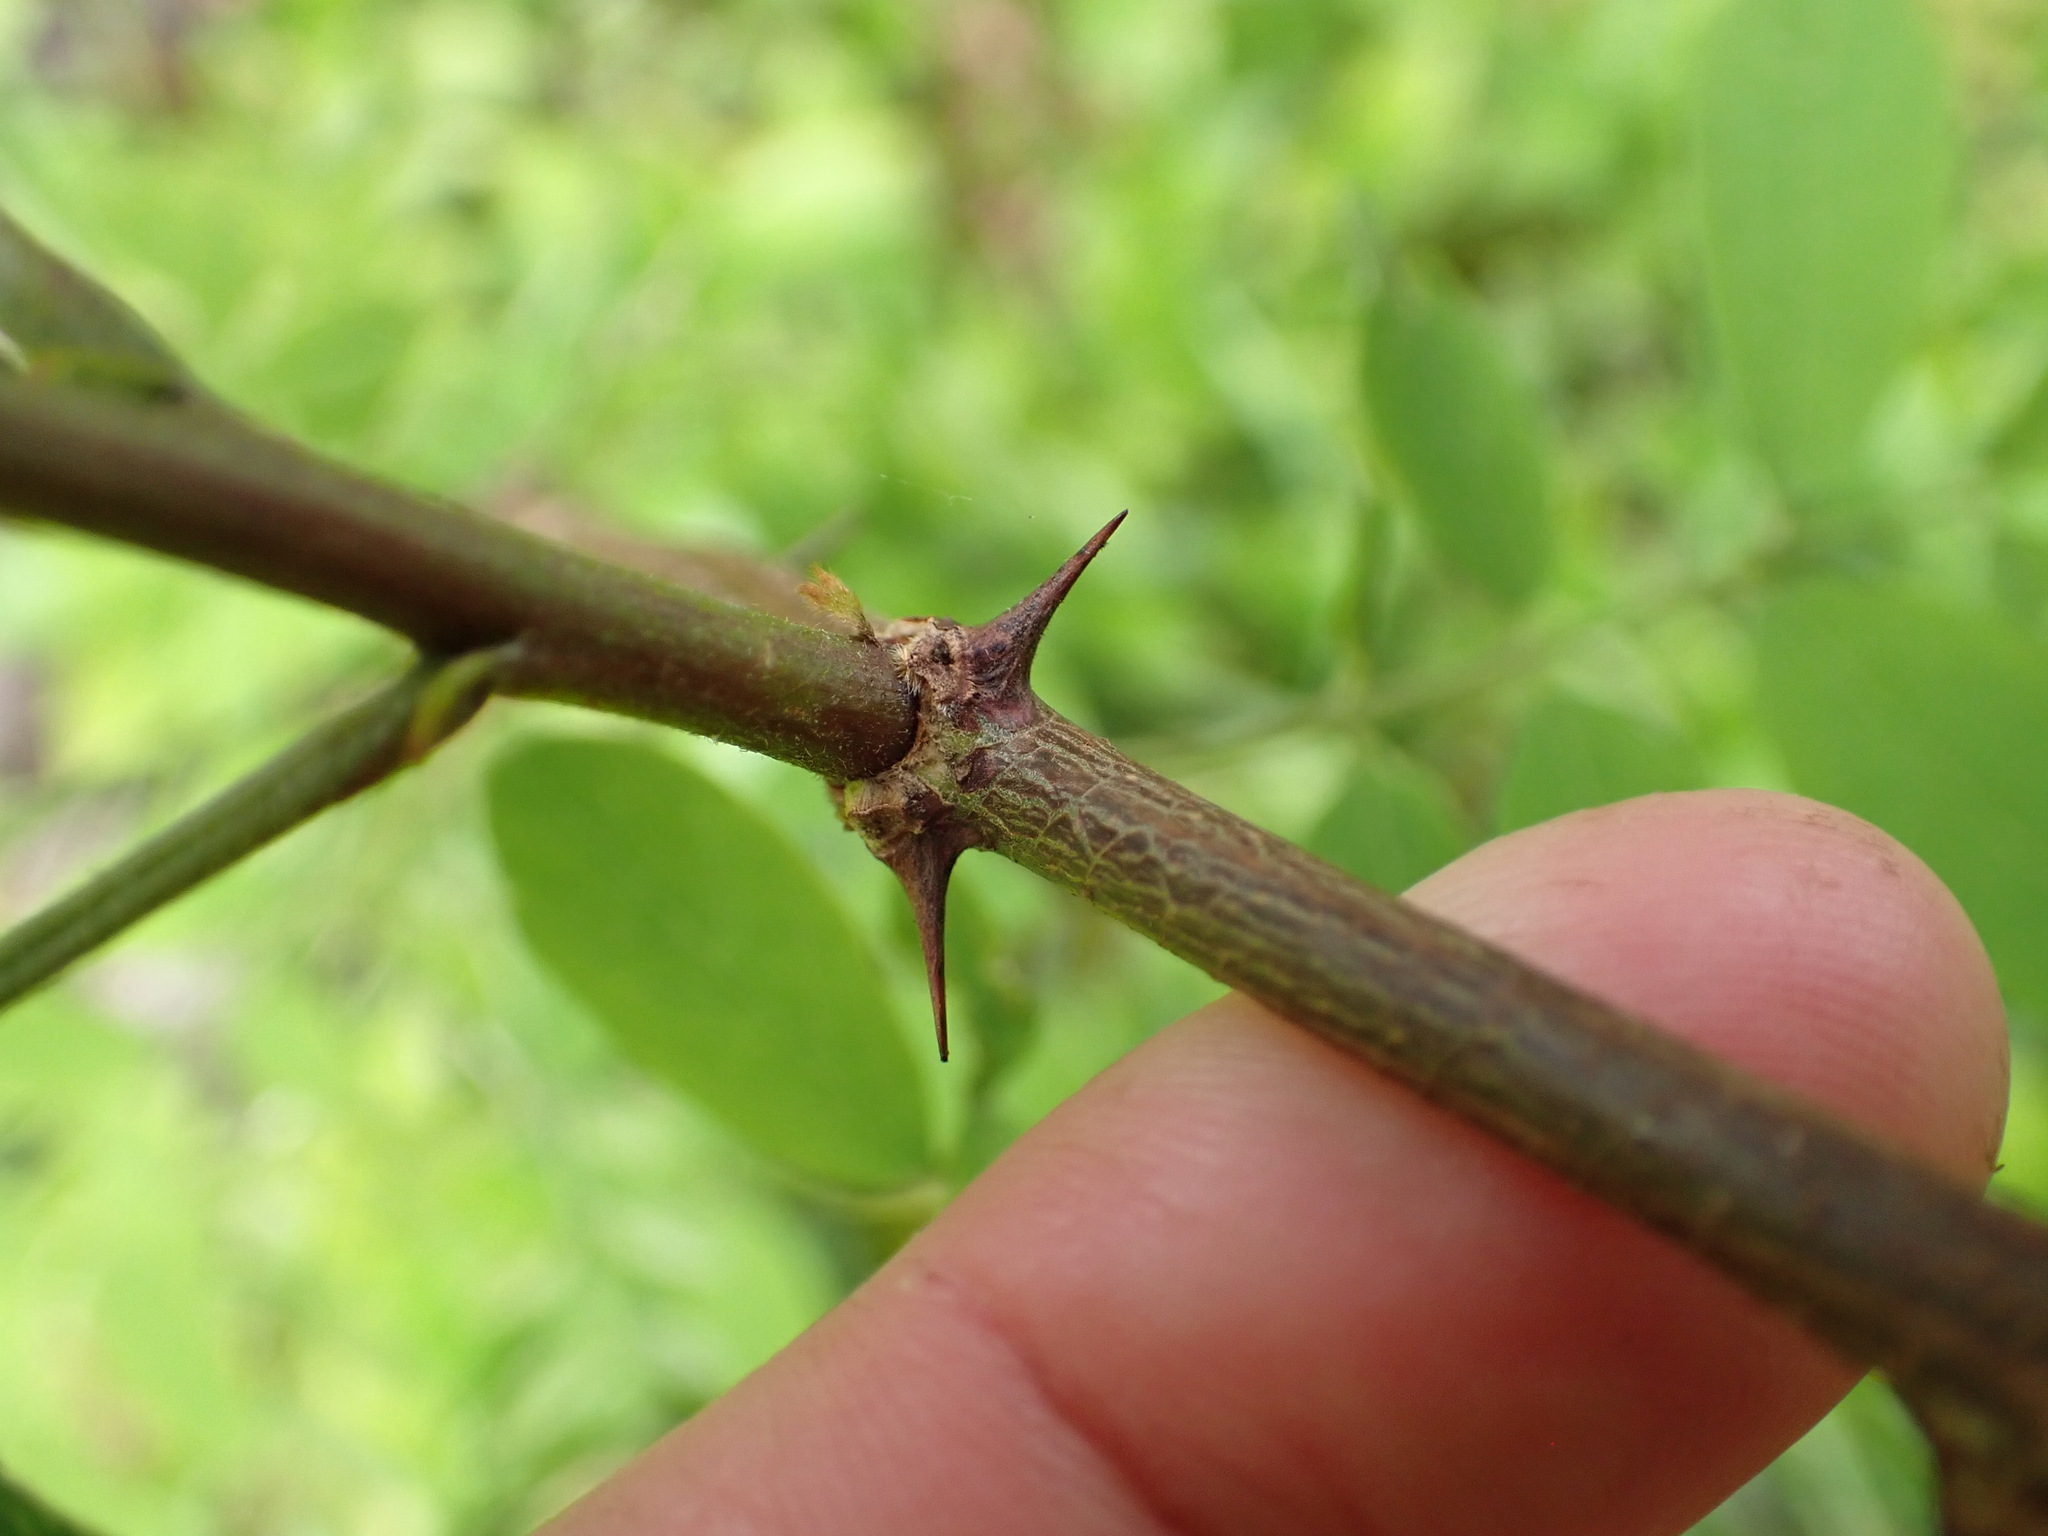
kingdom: Plantae
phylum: Tracheophyta
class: Magnoliopsida
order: Fabales
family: Fabaceae
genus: Robinia
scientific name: Robinia pseudoacacia
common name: Black locust
